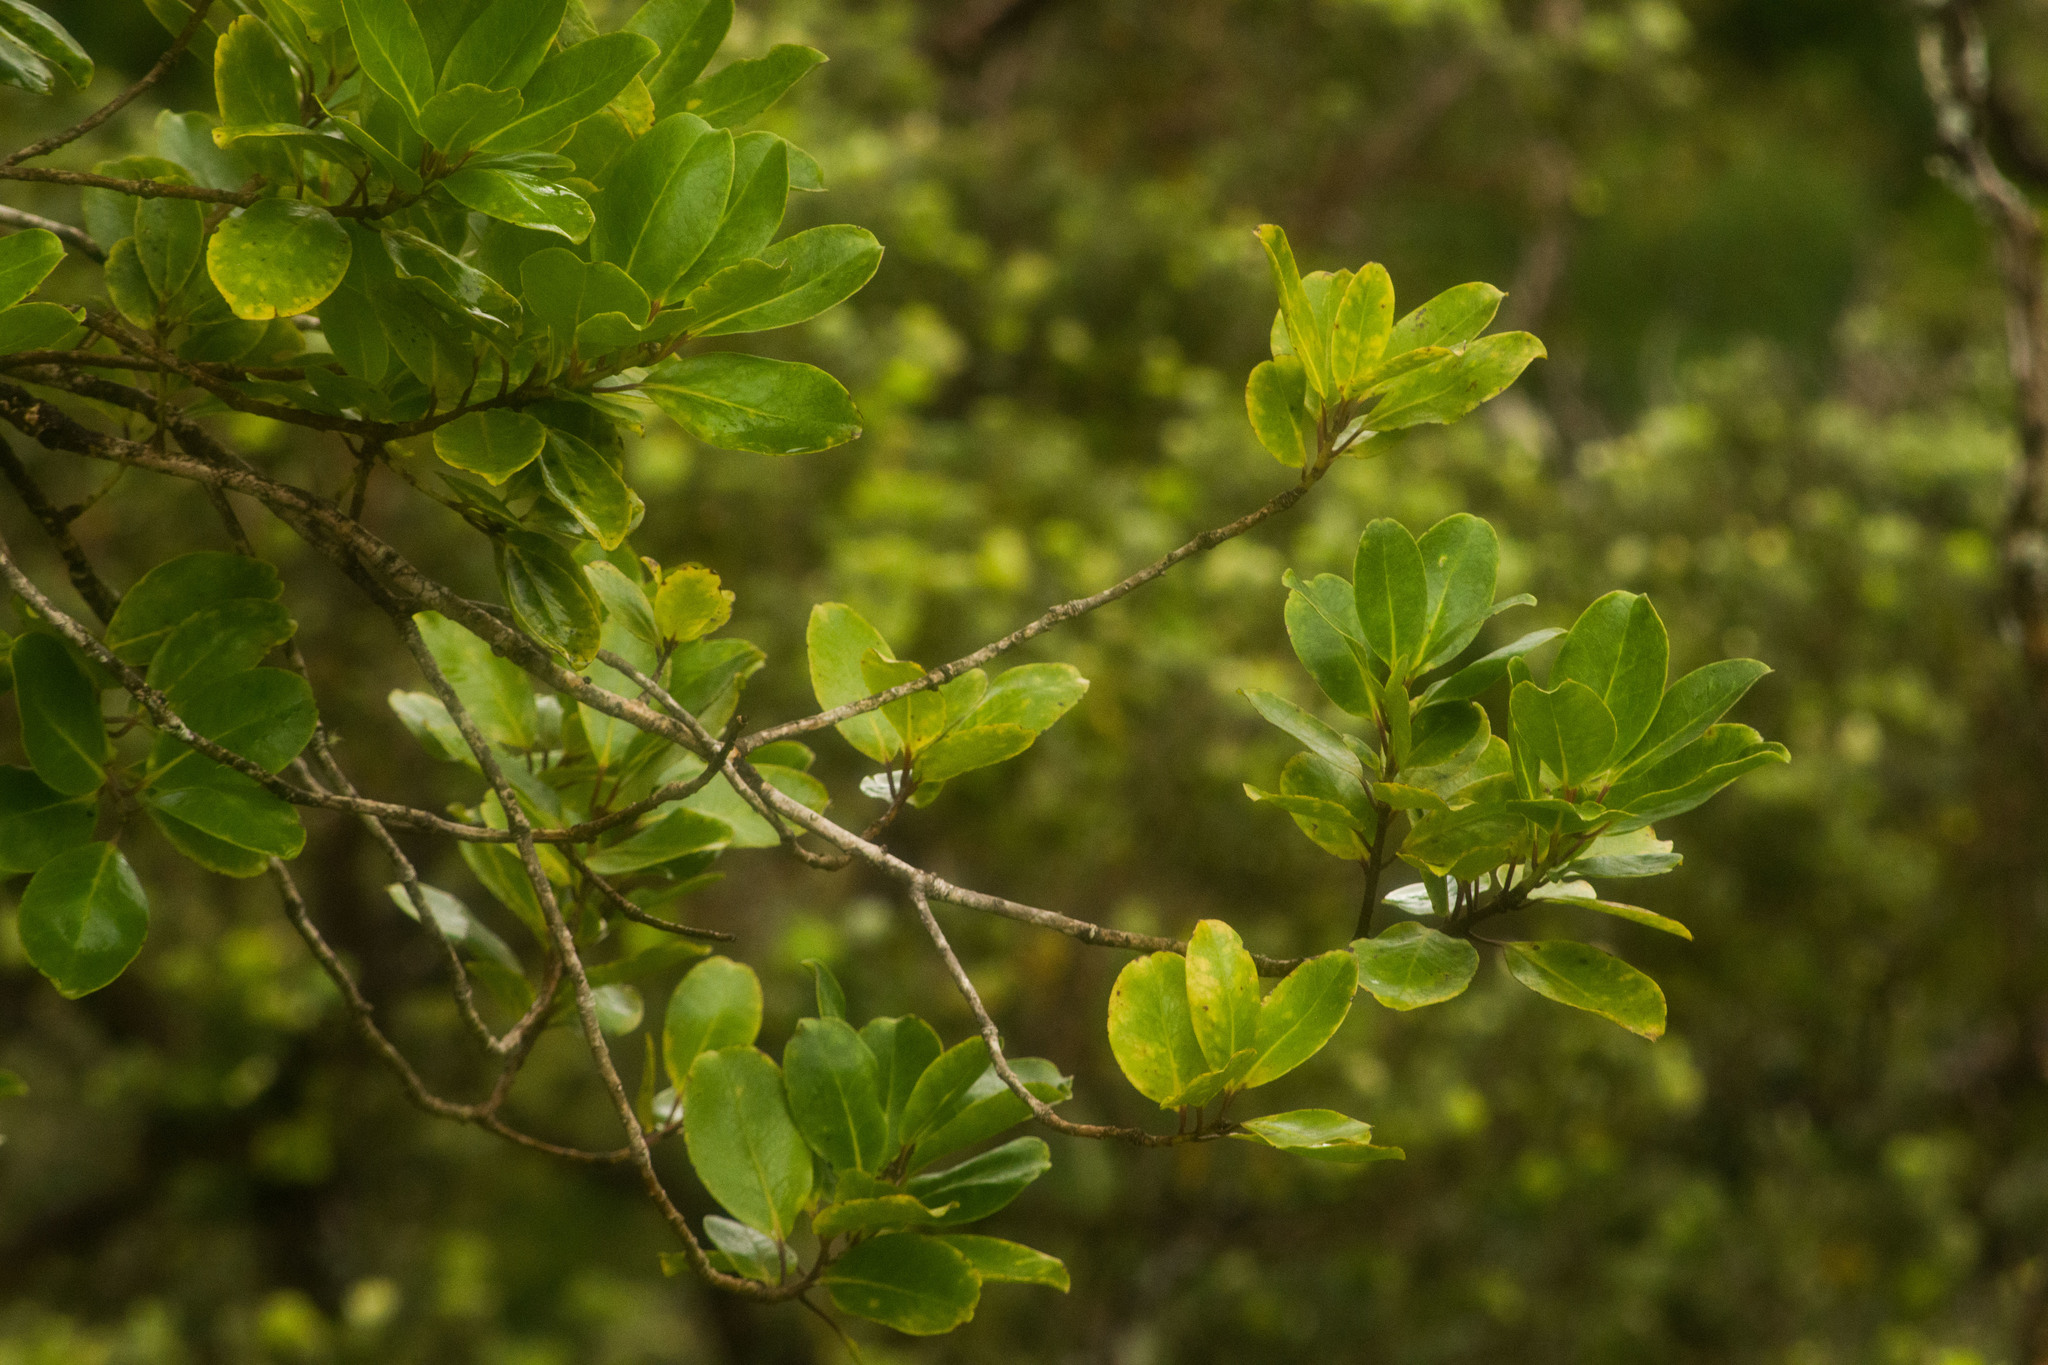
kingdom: Plantae
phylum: Tracheophyta
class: Magnoliopsida
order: Aquifoliales
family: Aquifoliaceae
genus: Ilex
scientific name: Ilex anomala
